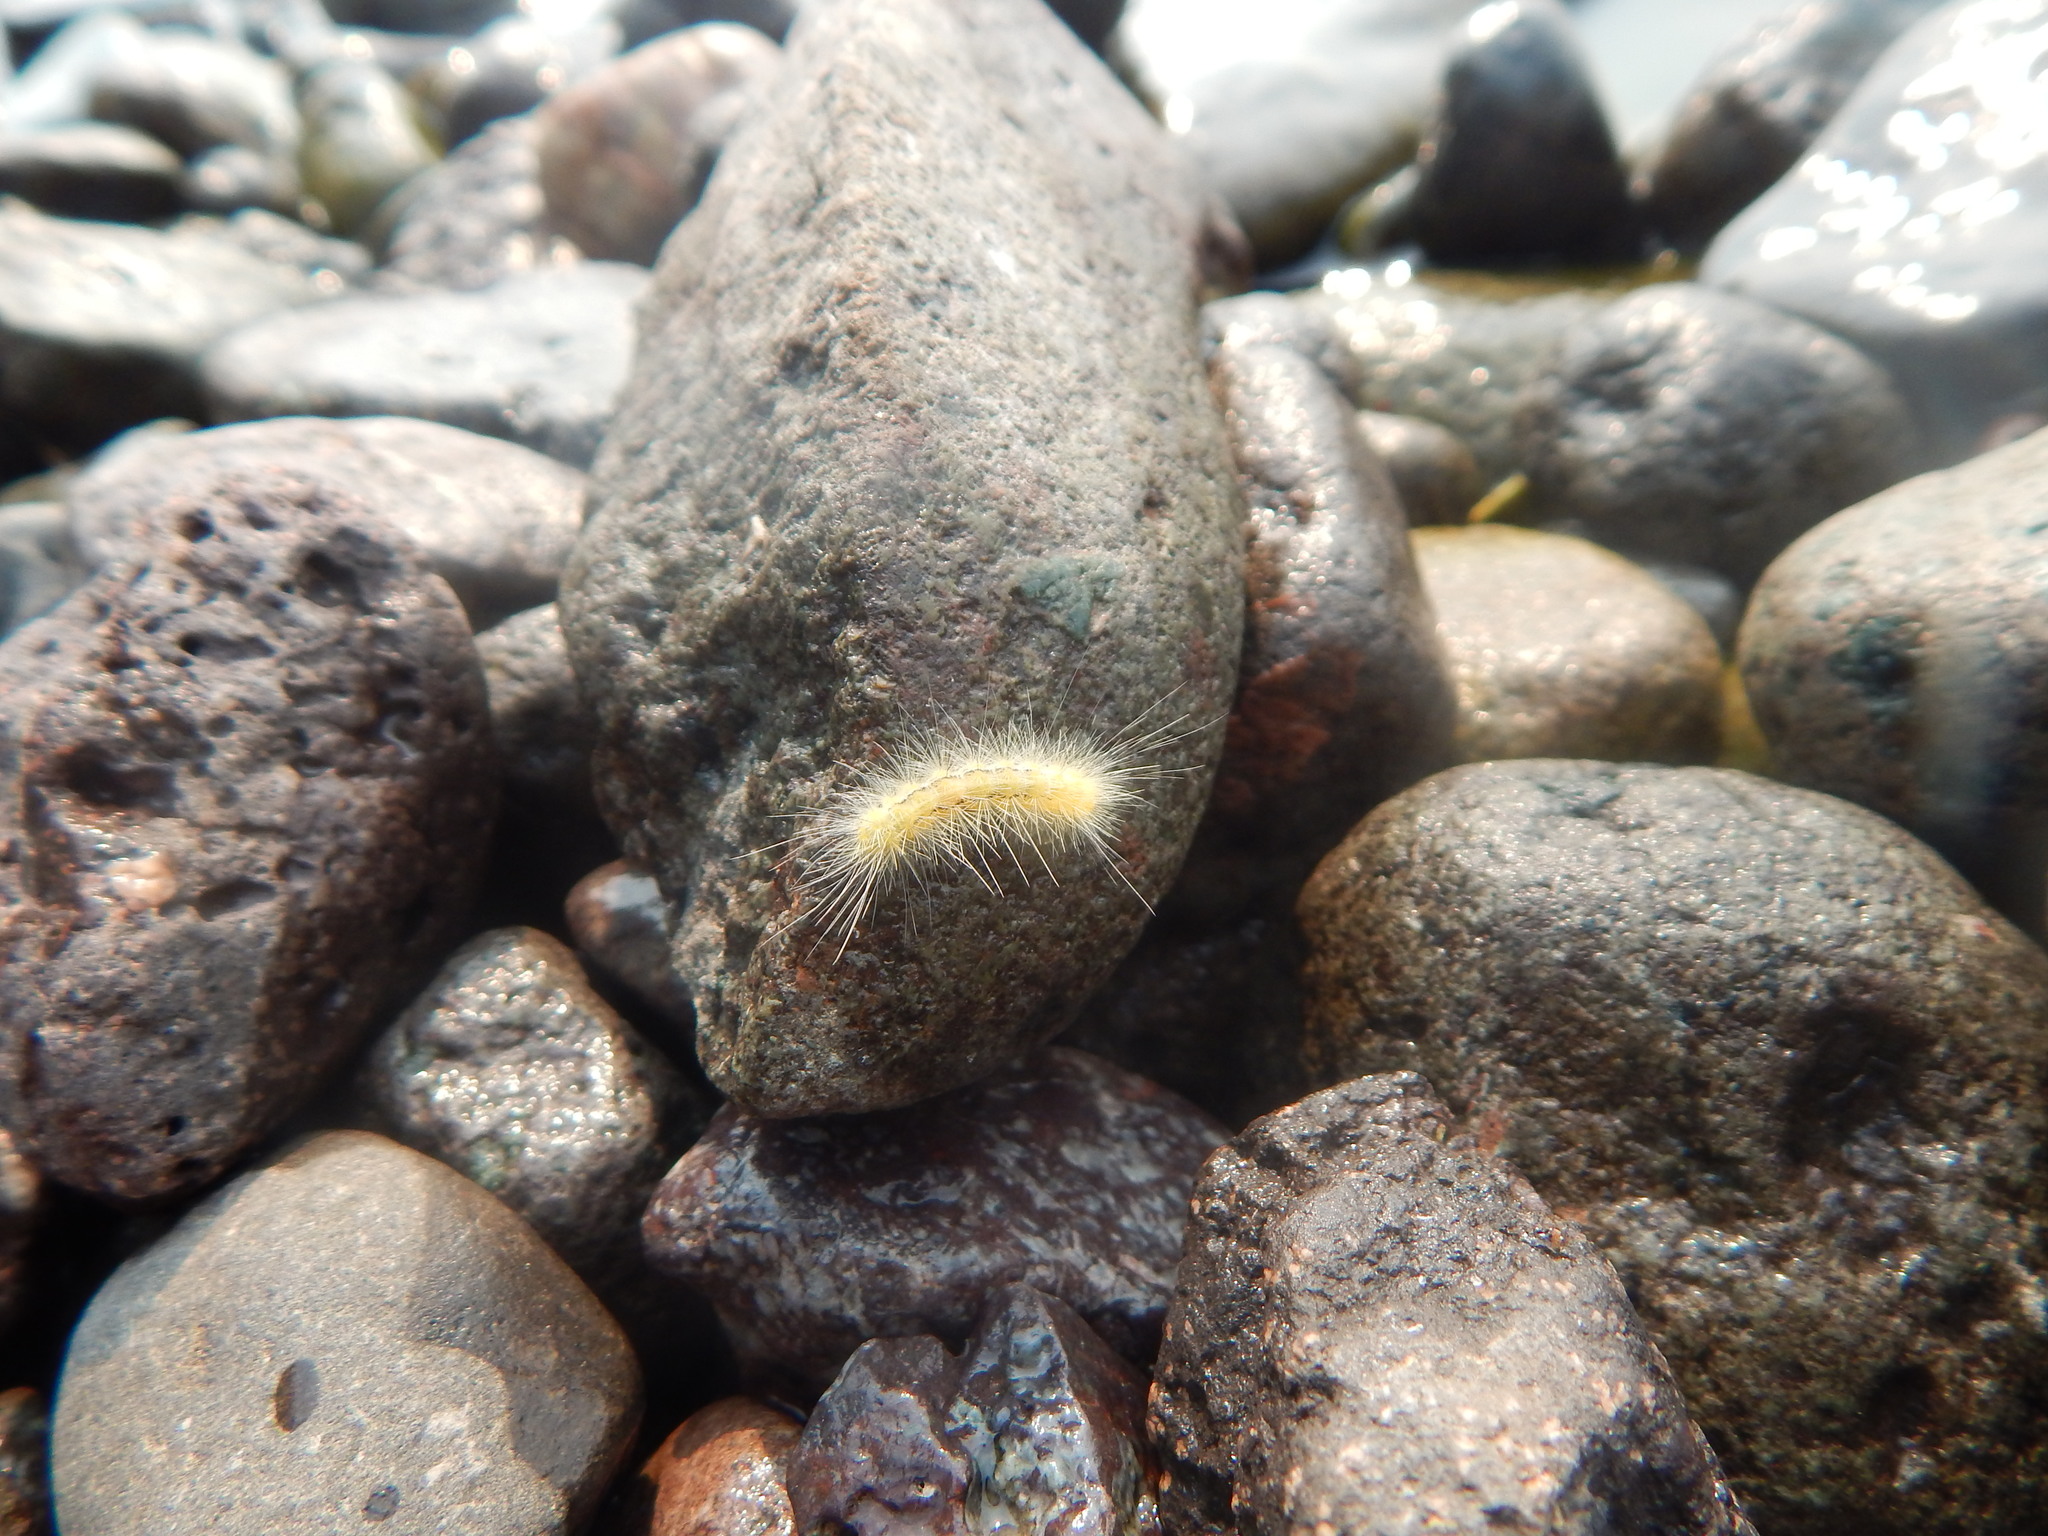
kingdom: Animalia
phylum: Arthropoda
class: Insecta
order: Lepidoptera
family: Erebidae
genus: Spilosoma
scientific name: Spilosoma virginica
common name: Virginia tiger moth
